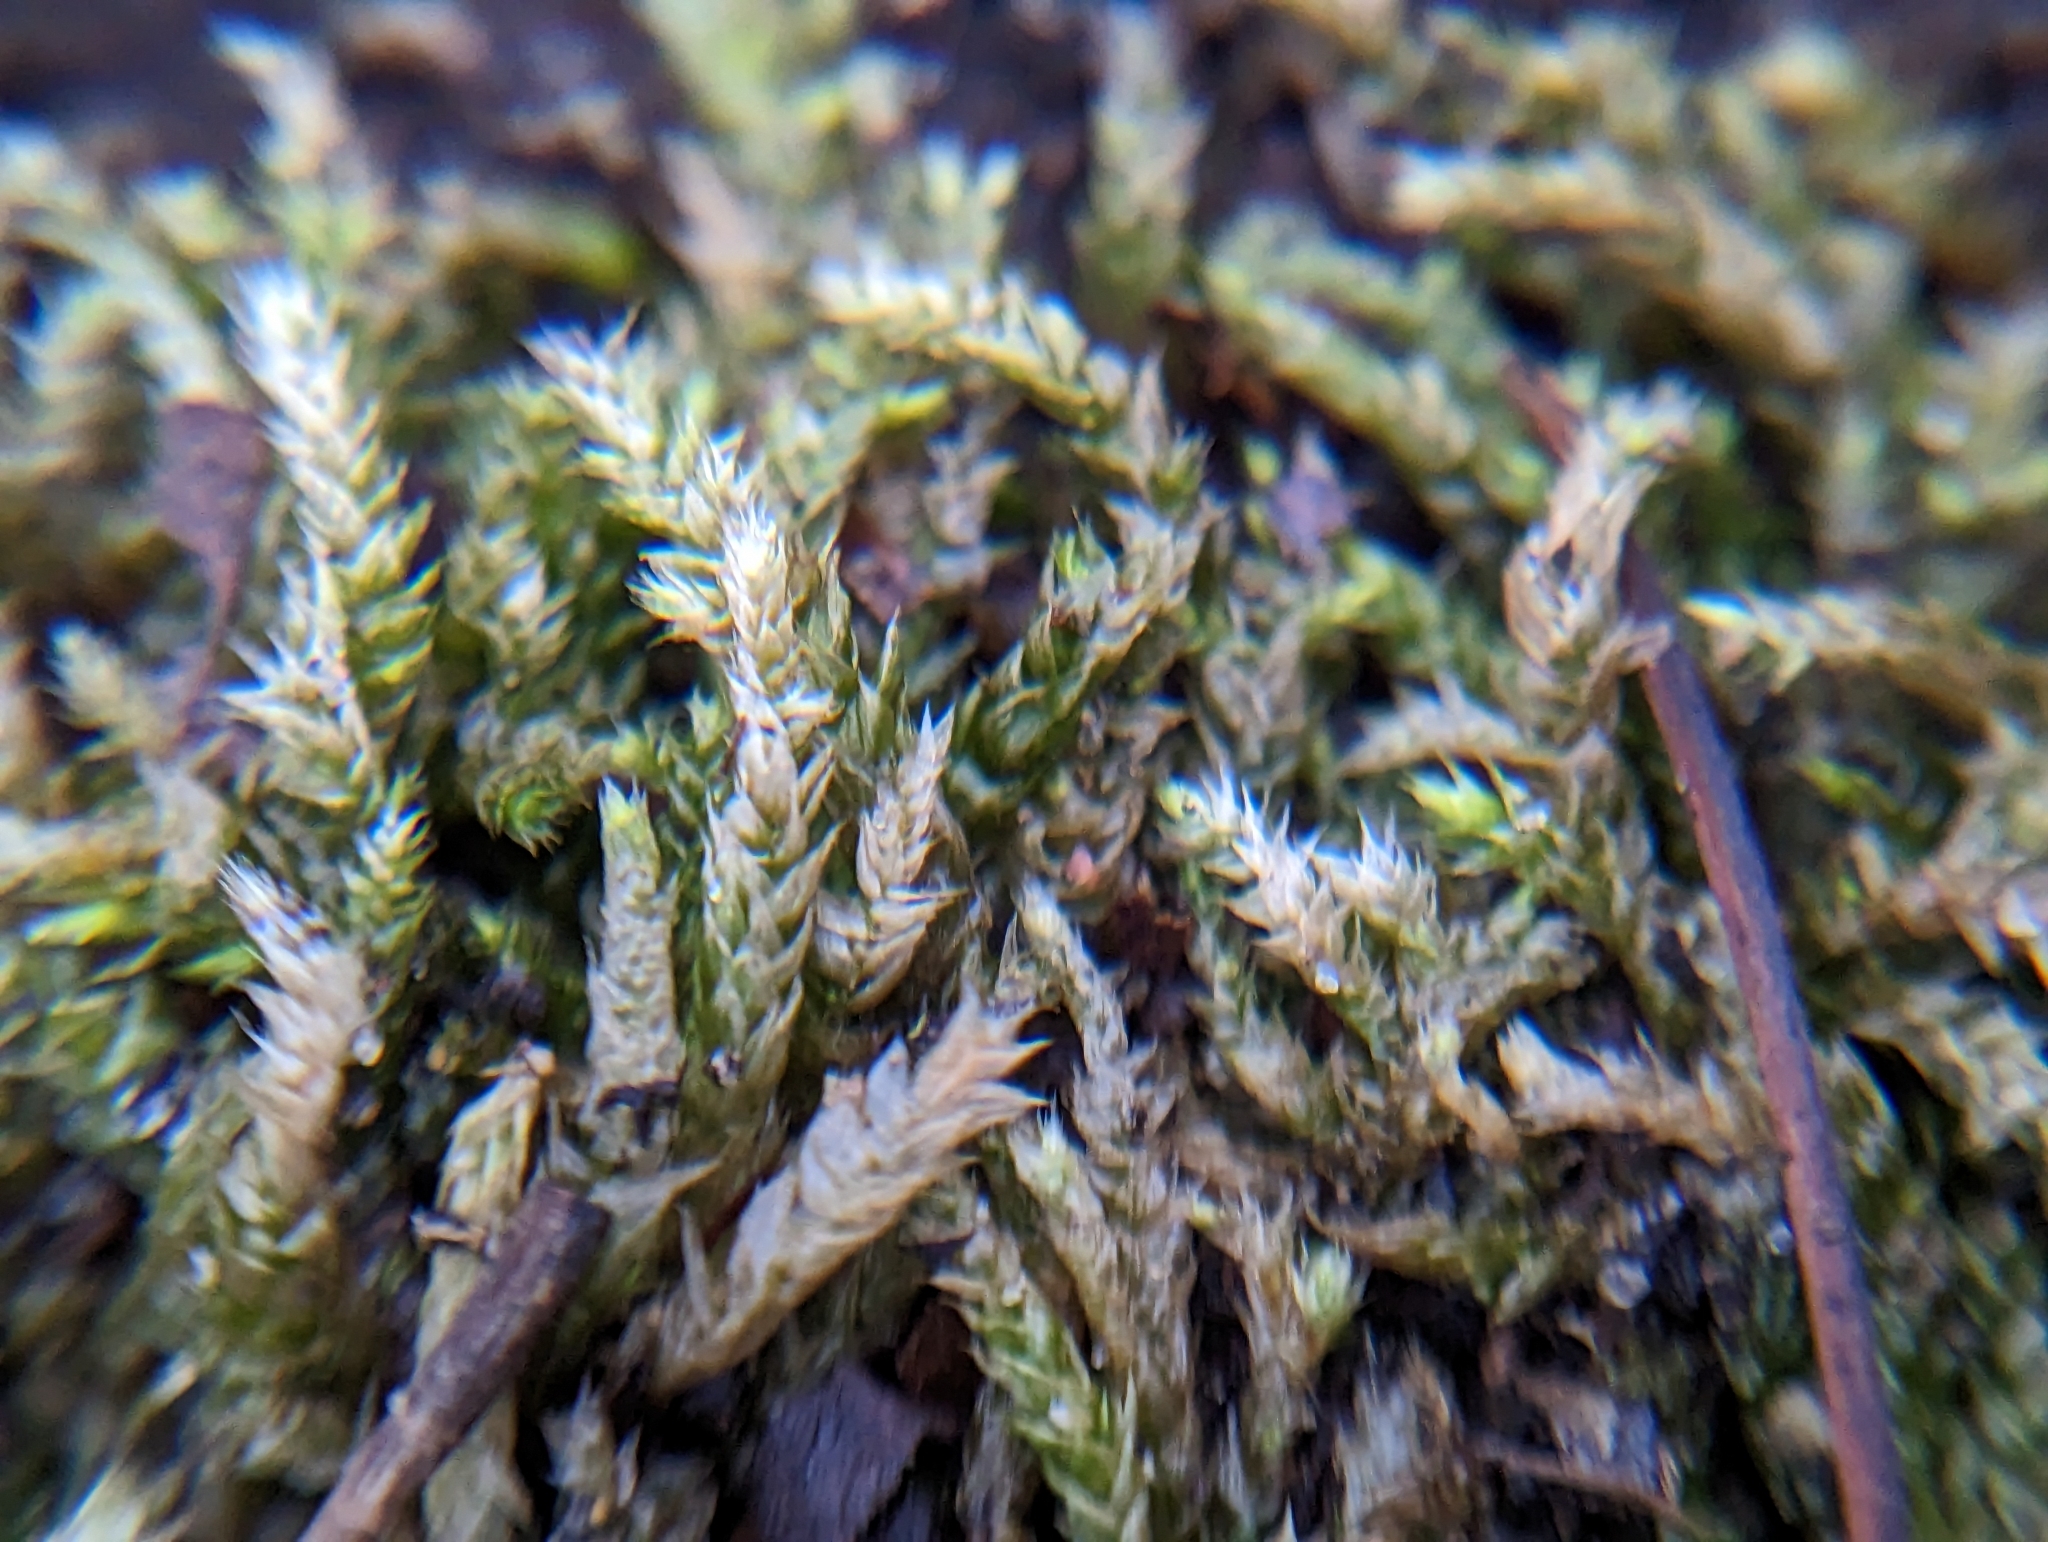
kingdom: Plantae
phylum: Bryophyta
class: Bryopsida
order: Hypnales
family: Callicladiaceae
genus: Callicladium
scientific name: Callicladium haldanianum
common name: Beautiful branch moss
